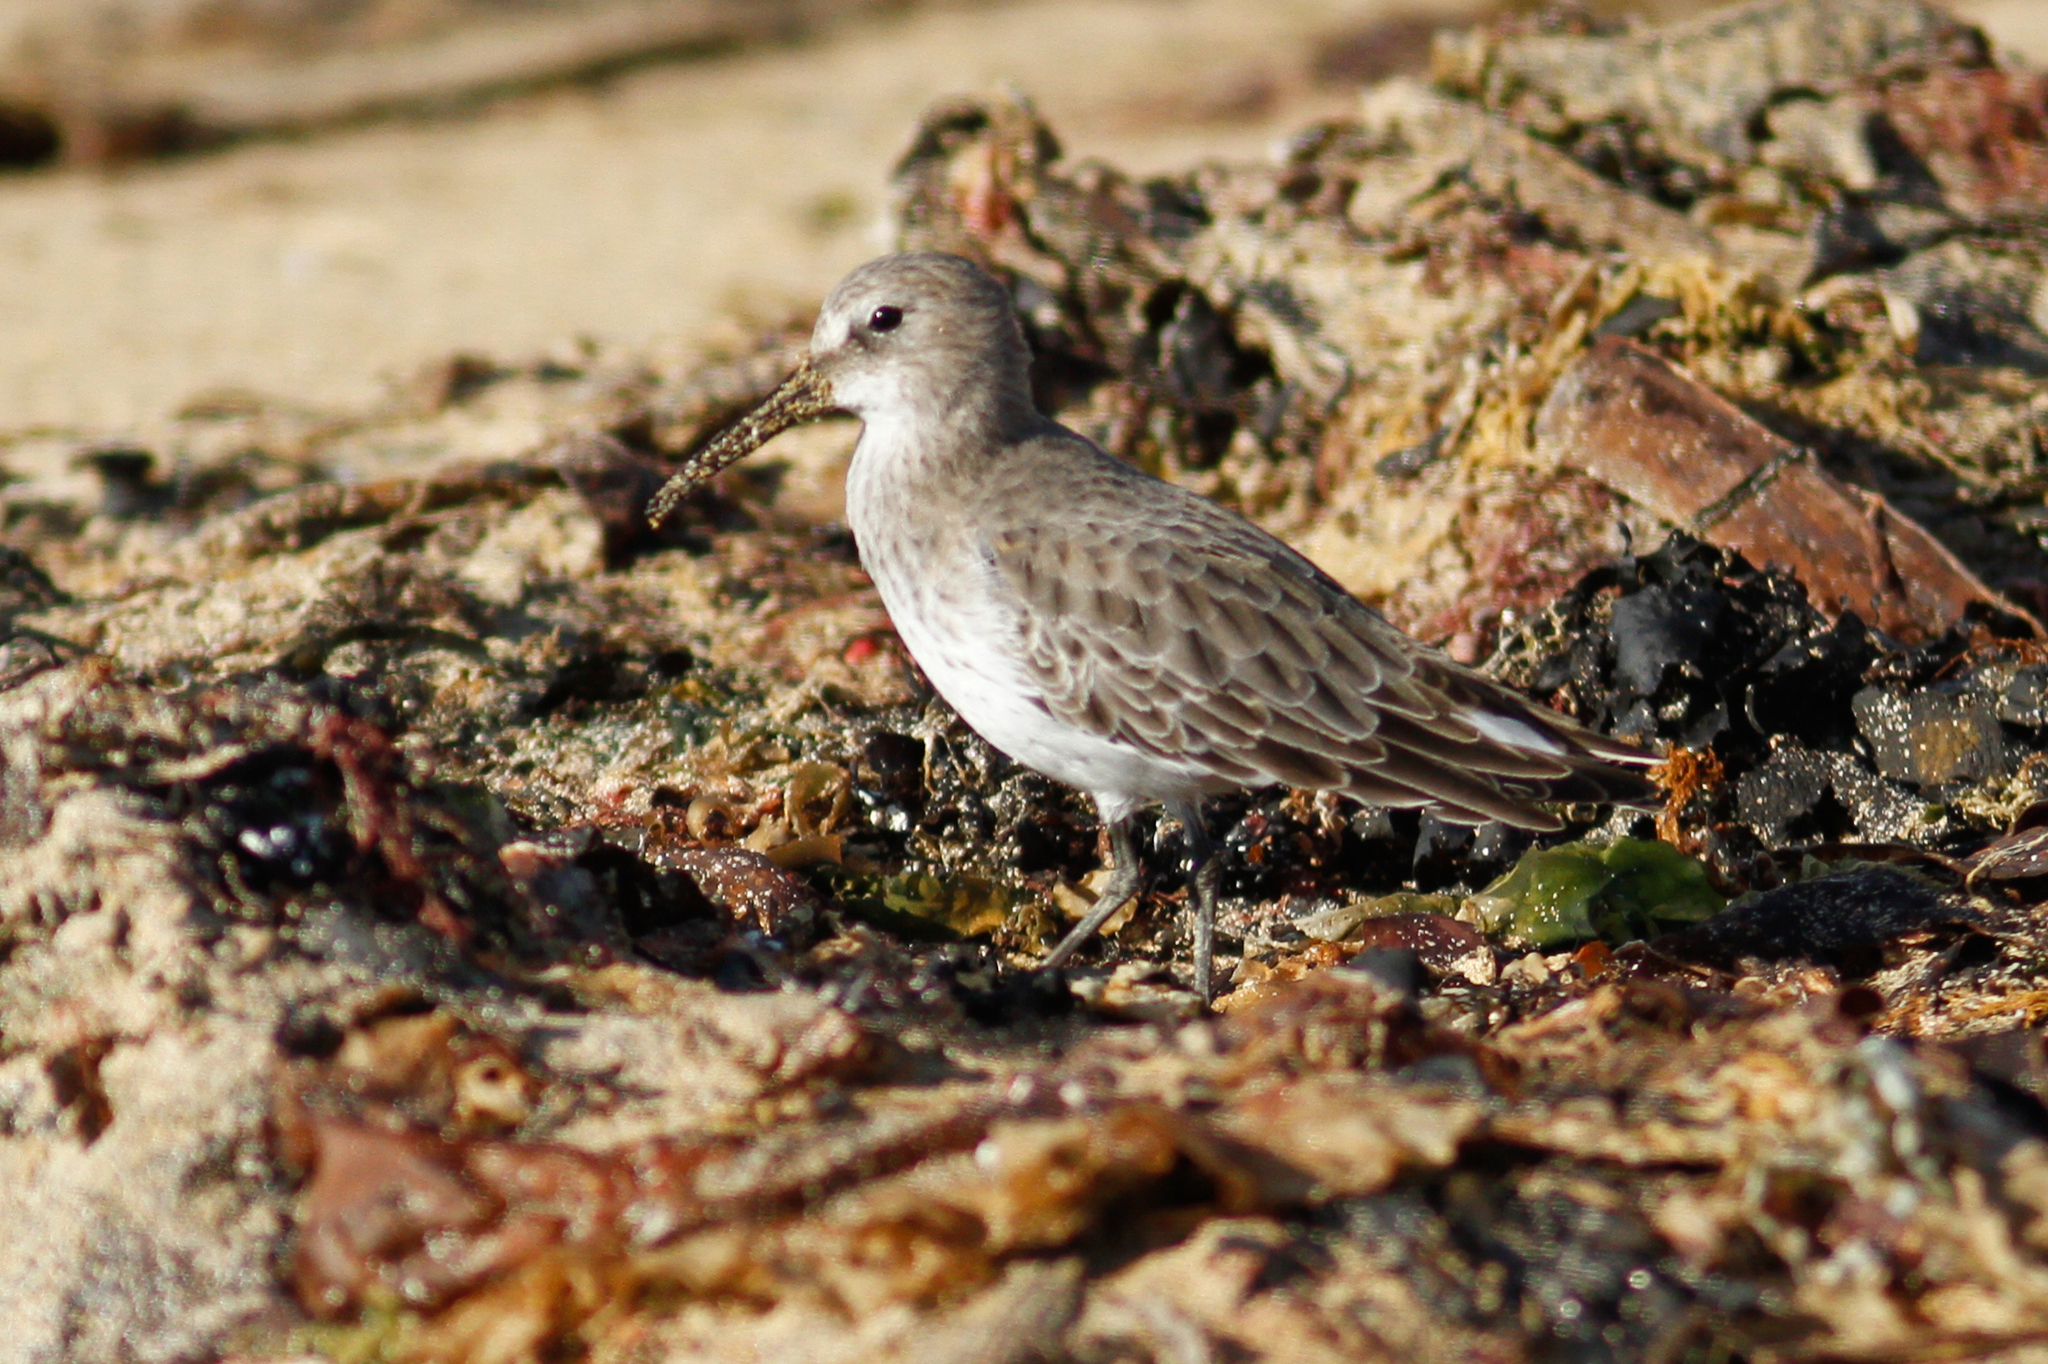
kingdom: Animalia
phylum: Chordata
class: Aves
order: Charadriiformes
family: Scolopacidae
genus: Calidris
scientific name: Calidris alpina
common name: Dunlin
